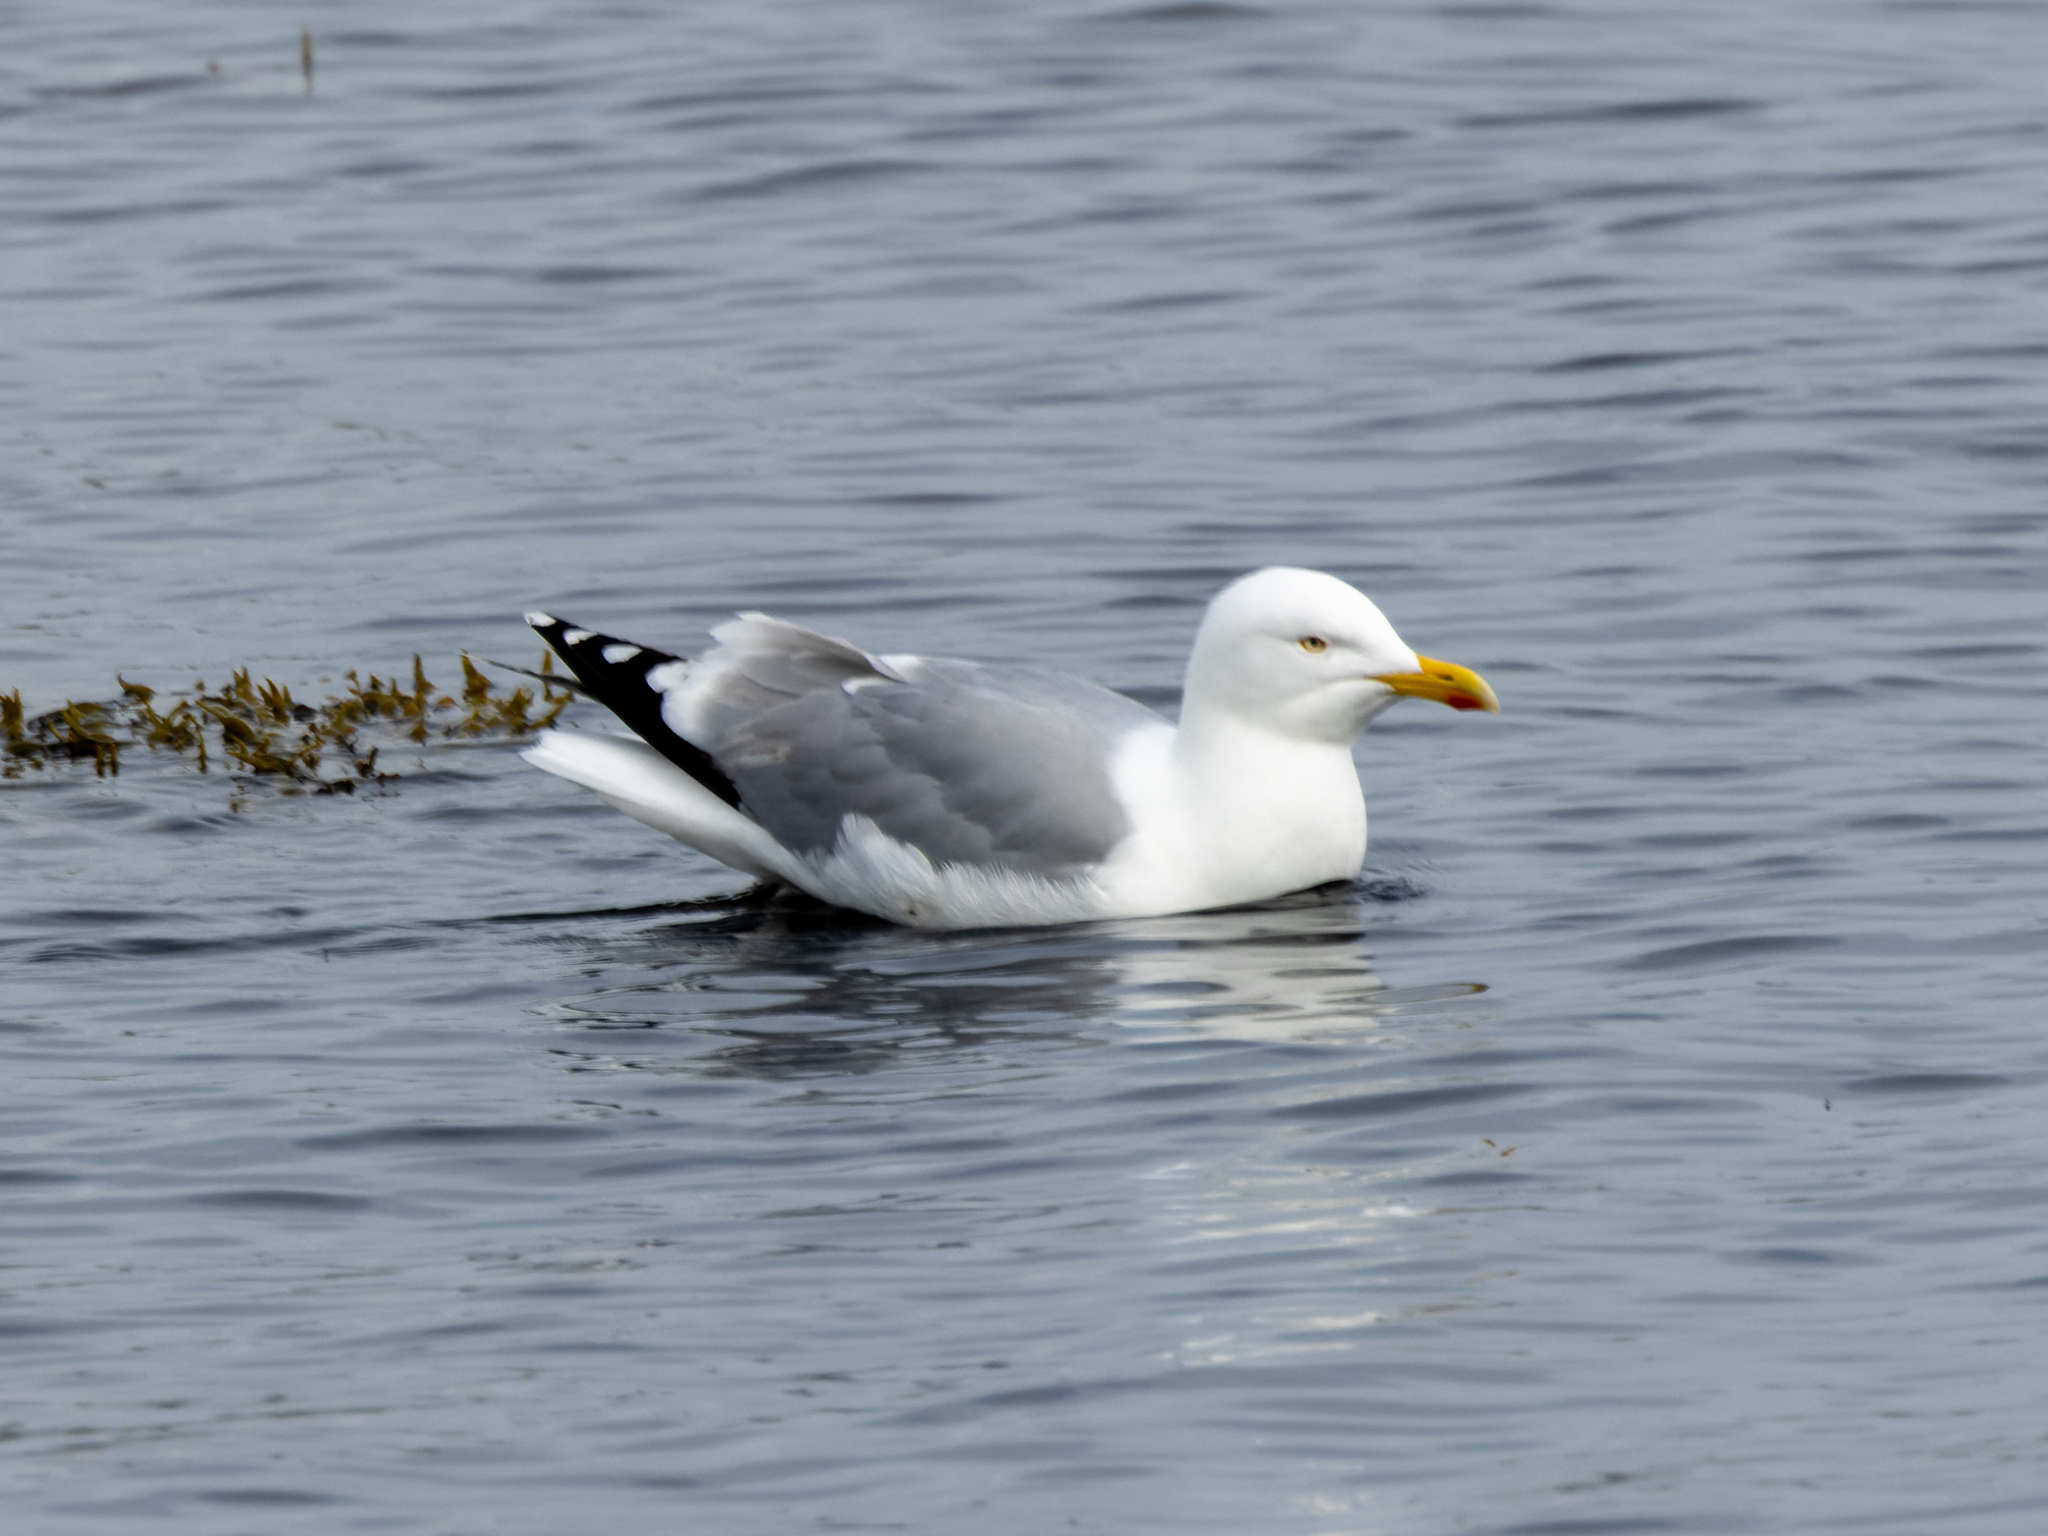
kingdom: Animalia
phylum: Chordata
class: Aves
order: Charadriiformes
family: Laridae
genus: Larus
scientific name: Larus argentatus
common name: Herring gull
